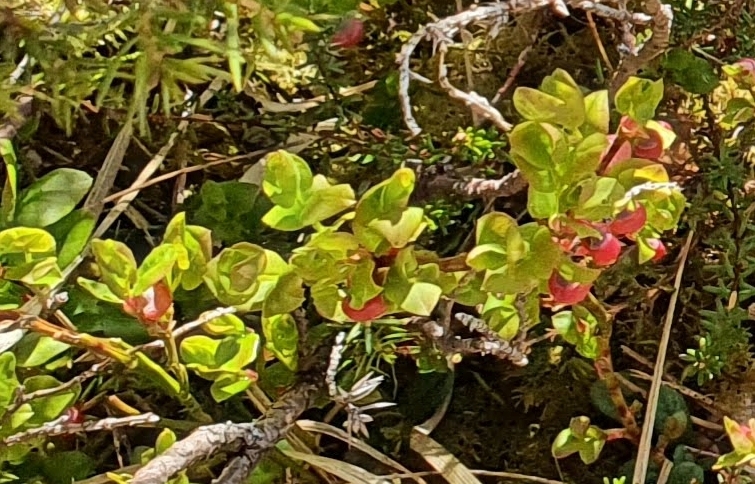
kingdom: Plantae
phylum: Tracheophyta
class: Magnoliopsida
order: Ericales
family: Ericaceae
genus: Vaccinium
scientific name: Vaccinium myrtillus
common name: Bilberry
